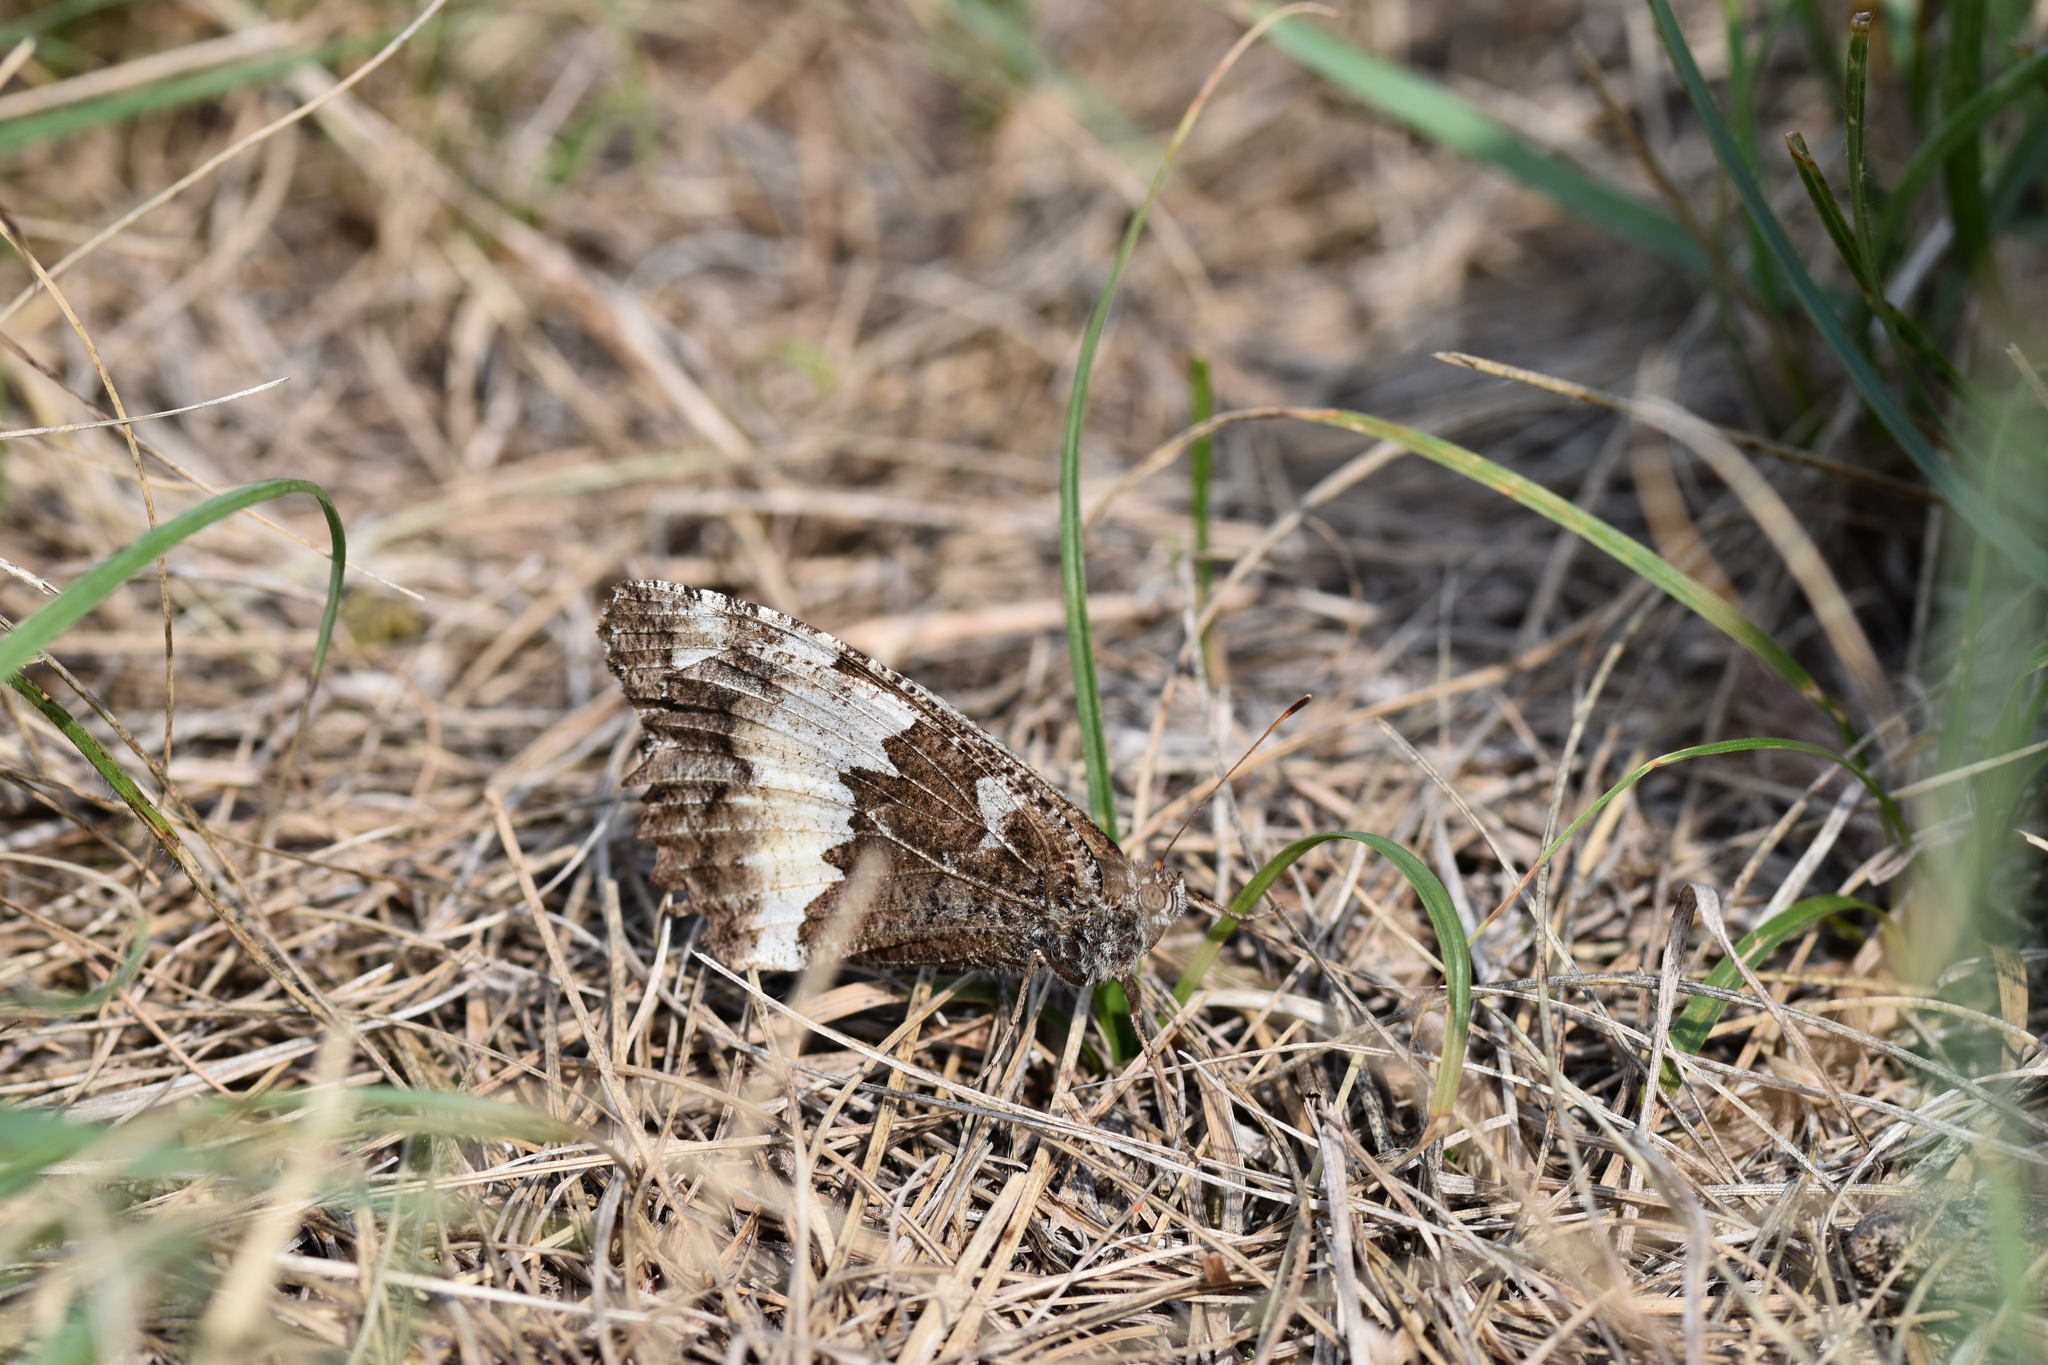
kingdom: Animalia
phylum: Arthropoda
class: Insecta
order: Lepidoptera
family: Lycaenidae
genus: Loweia
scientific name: Loweia tityrus
